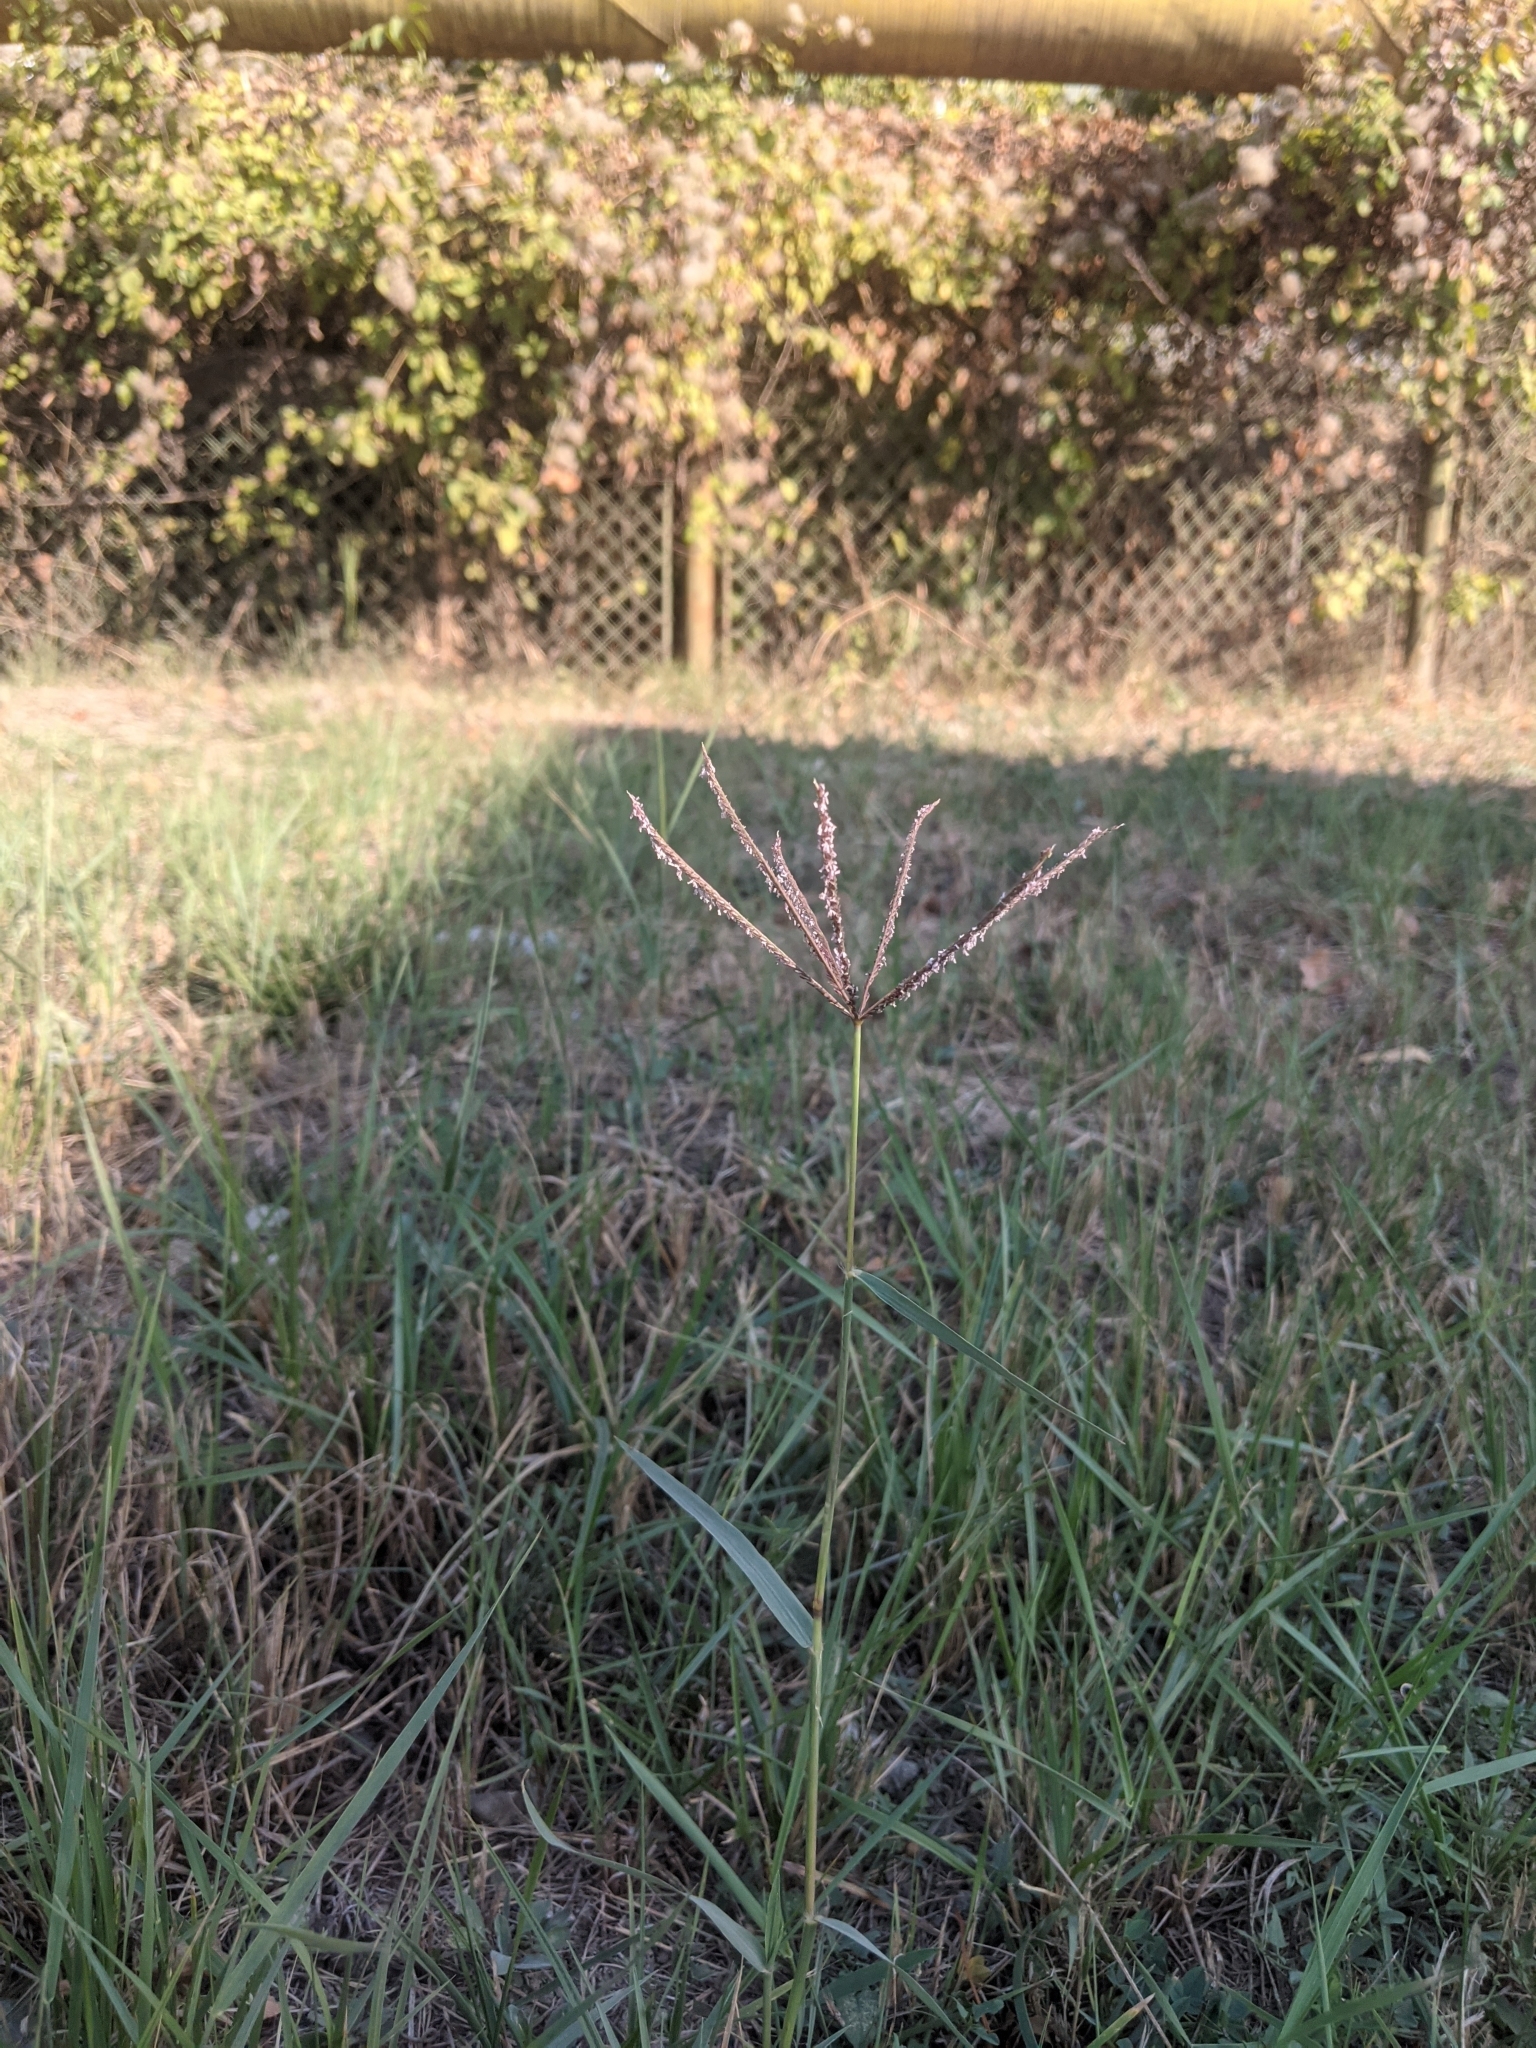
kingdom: Plantae
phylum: Tracheophyta
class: Liliopsida
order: Poales
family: Poaceae
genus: Cynodon
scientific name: Cynodon dactylon
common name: Bermuda grass
